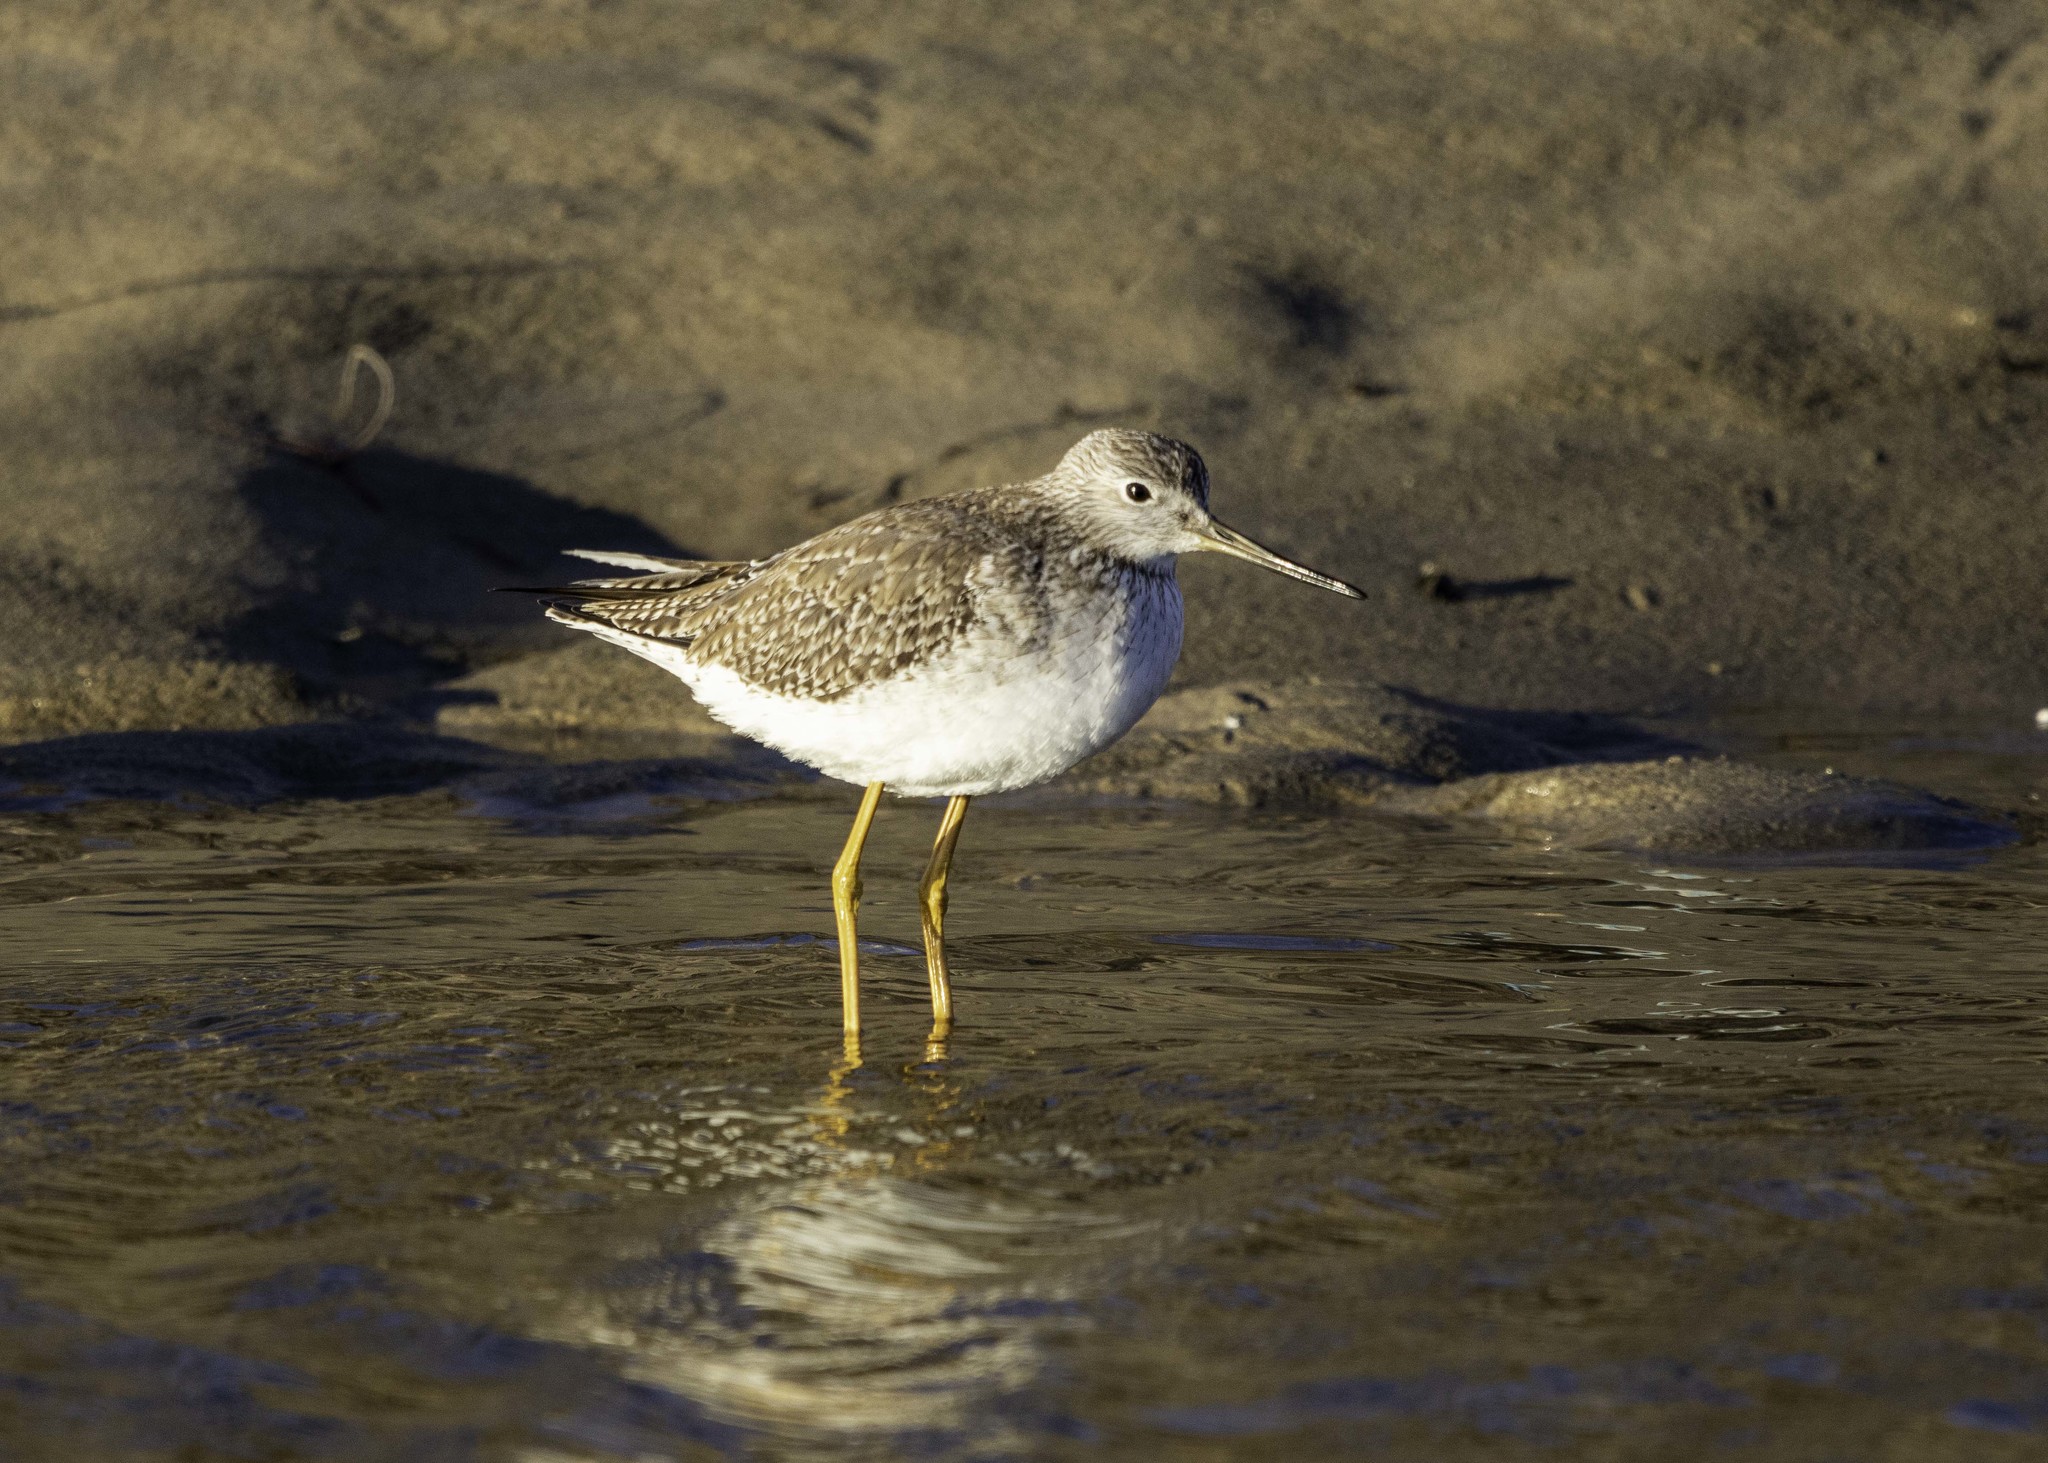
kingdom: Animalia
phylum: Chordata
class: Aves
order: Charadriiformes
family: Scolopacidae
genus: Tringa
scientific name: Tringa melanoleuca
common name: Greater yellowlegs
